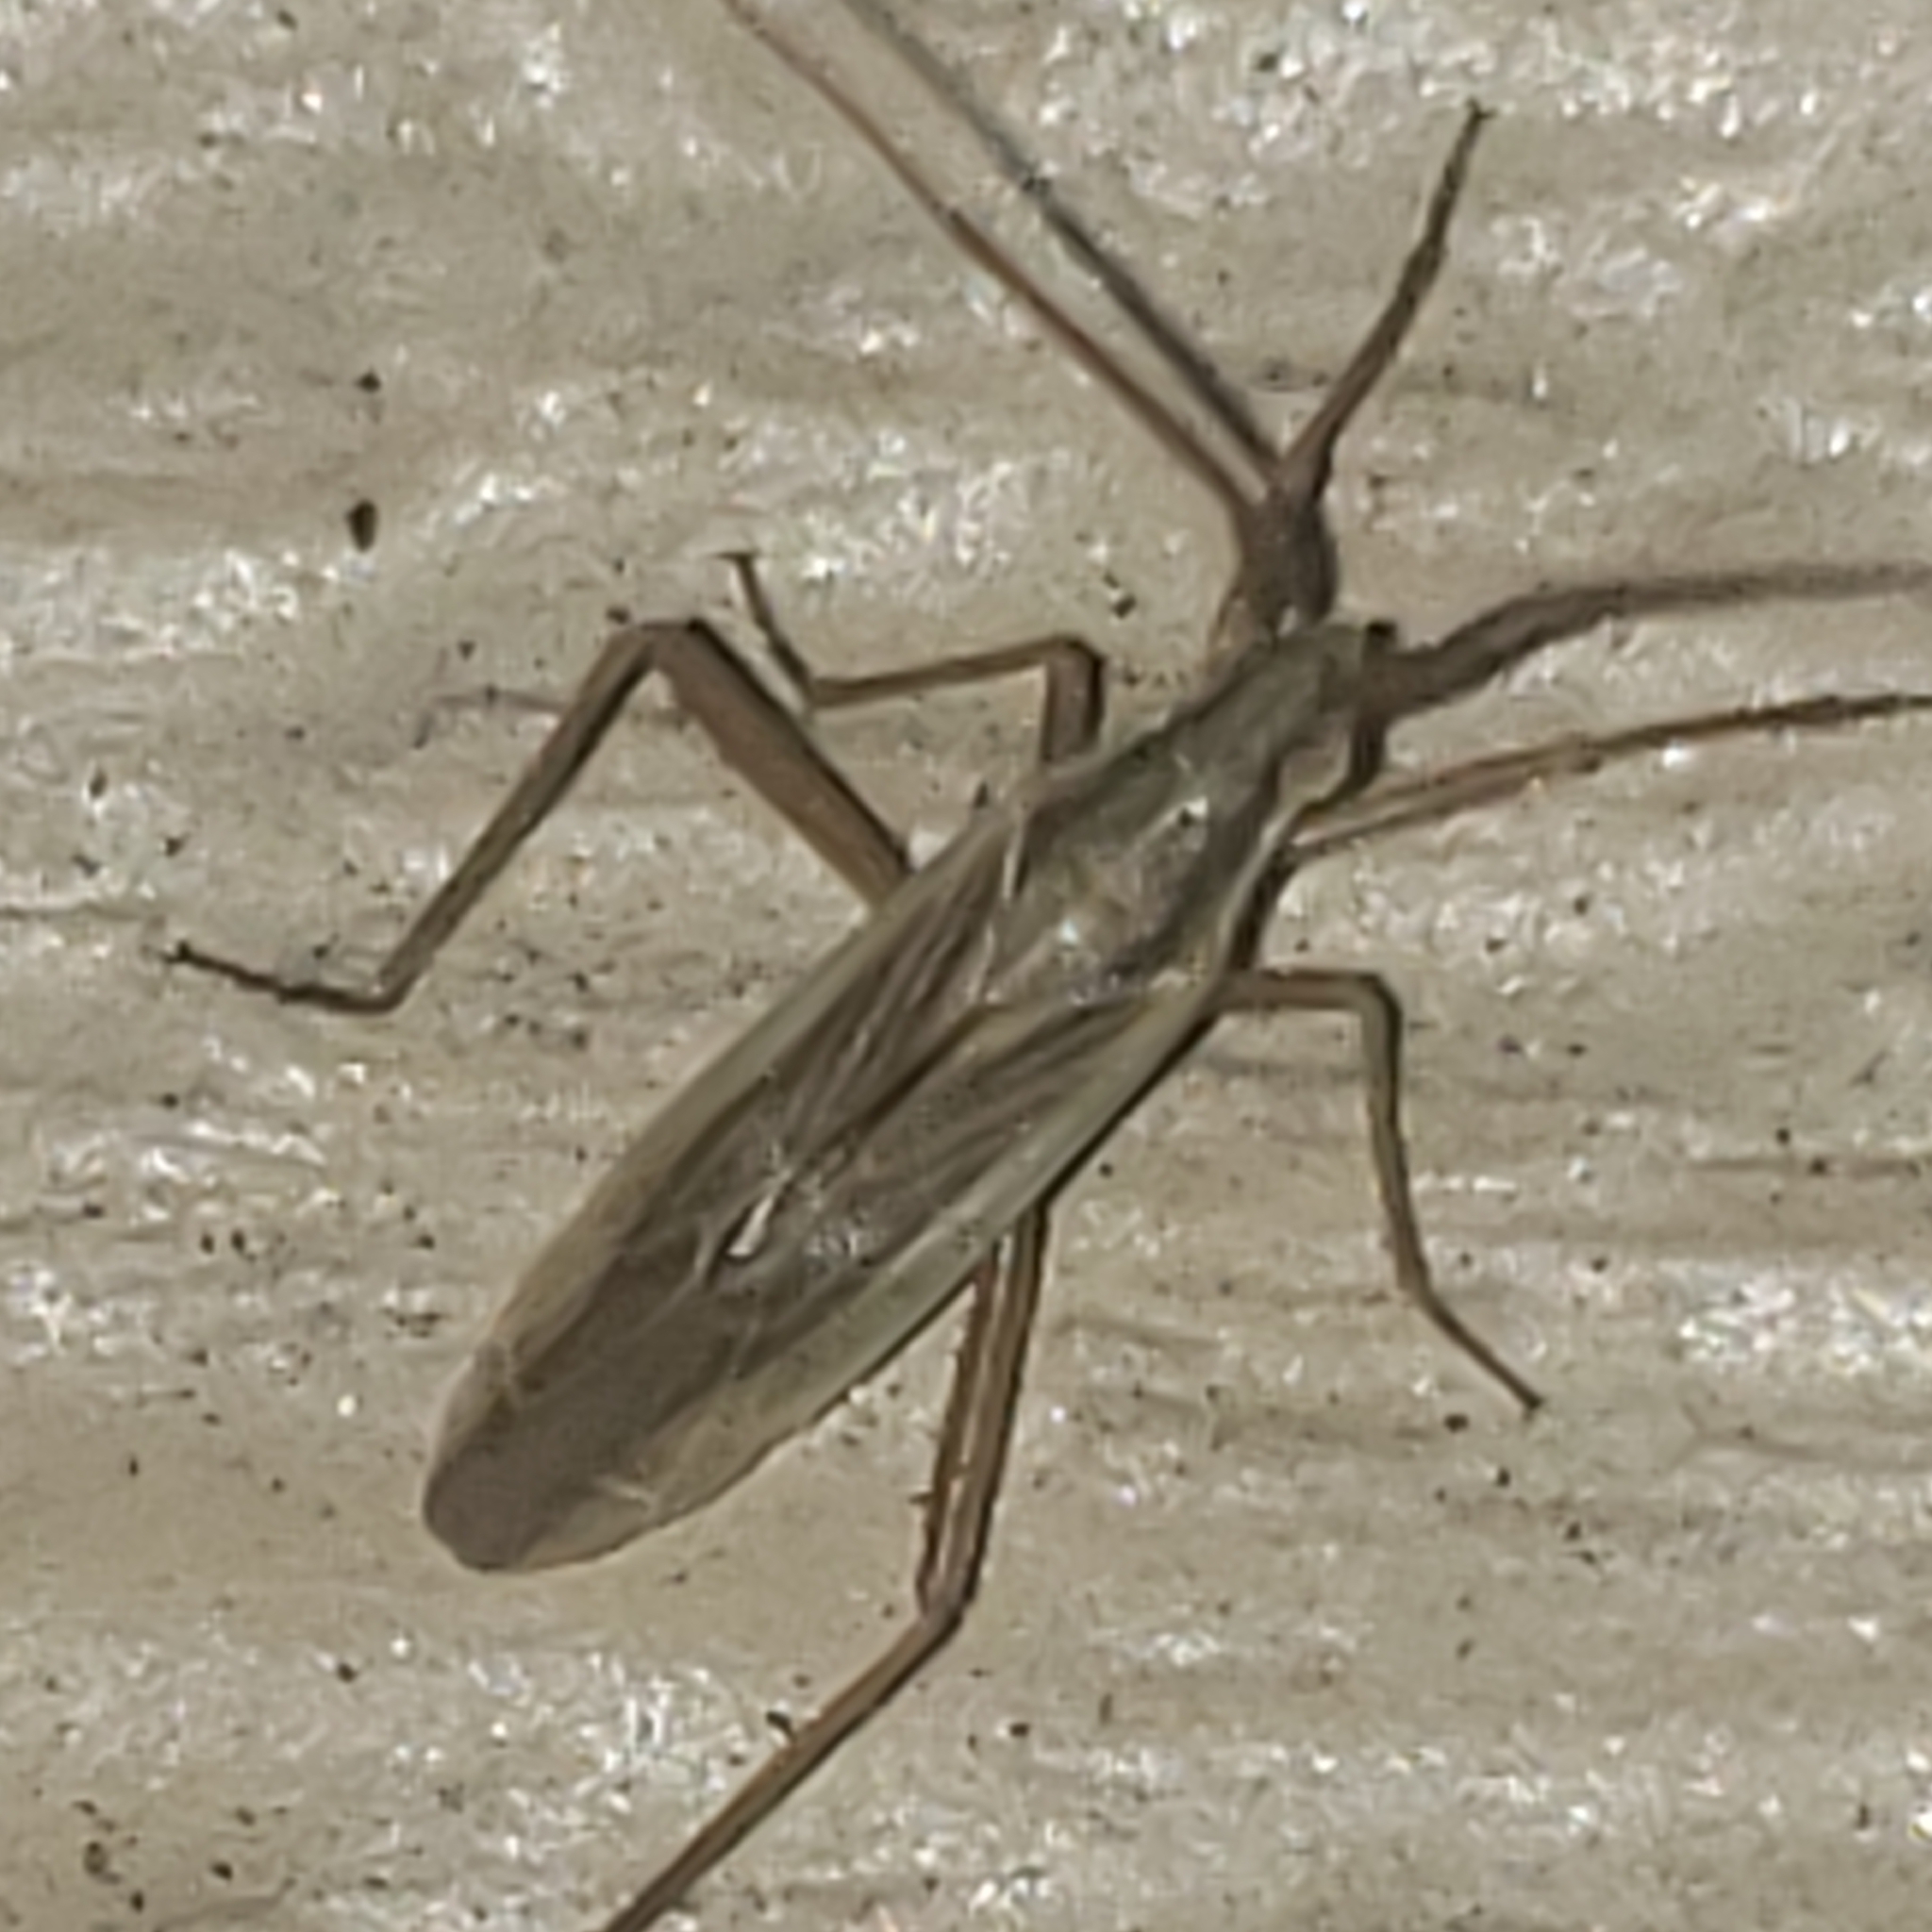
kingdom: Animalia
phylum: Arthropoda
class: Insecta
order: Hemiptera
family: Miridae
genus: Stenodema
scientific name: Stenodema trispinosa
